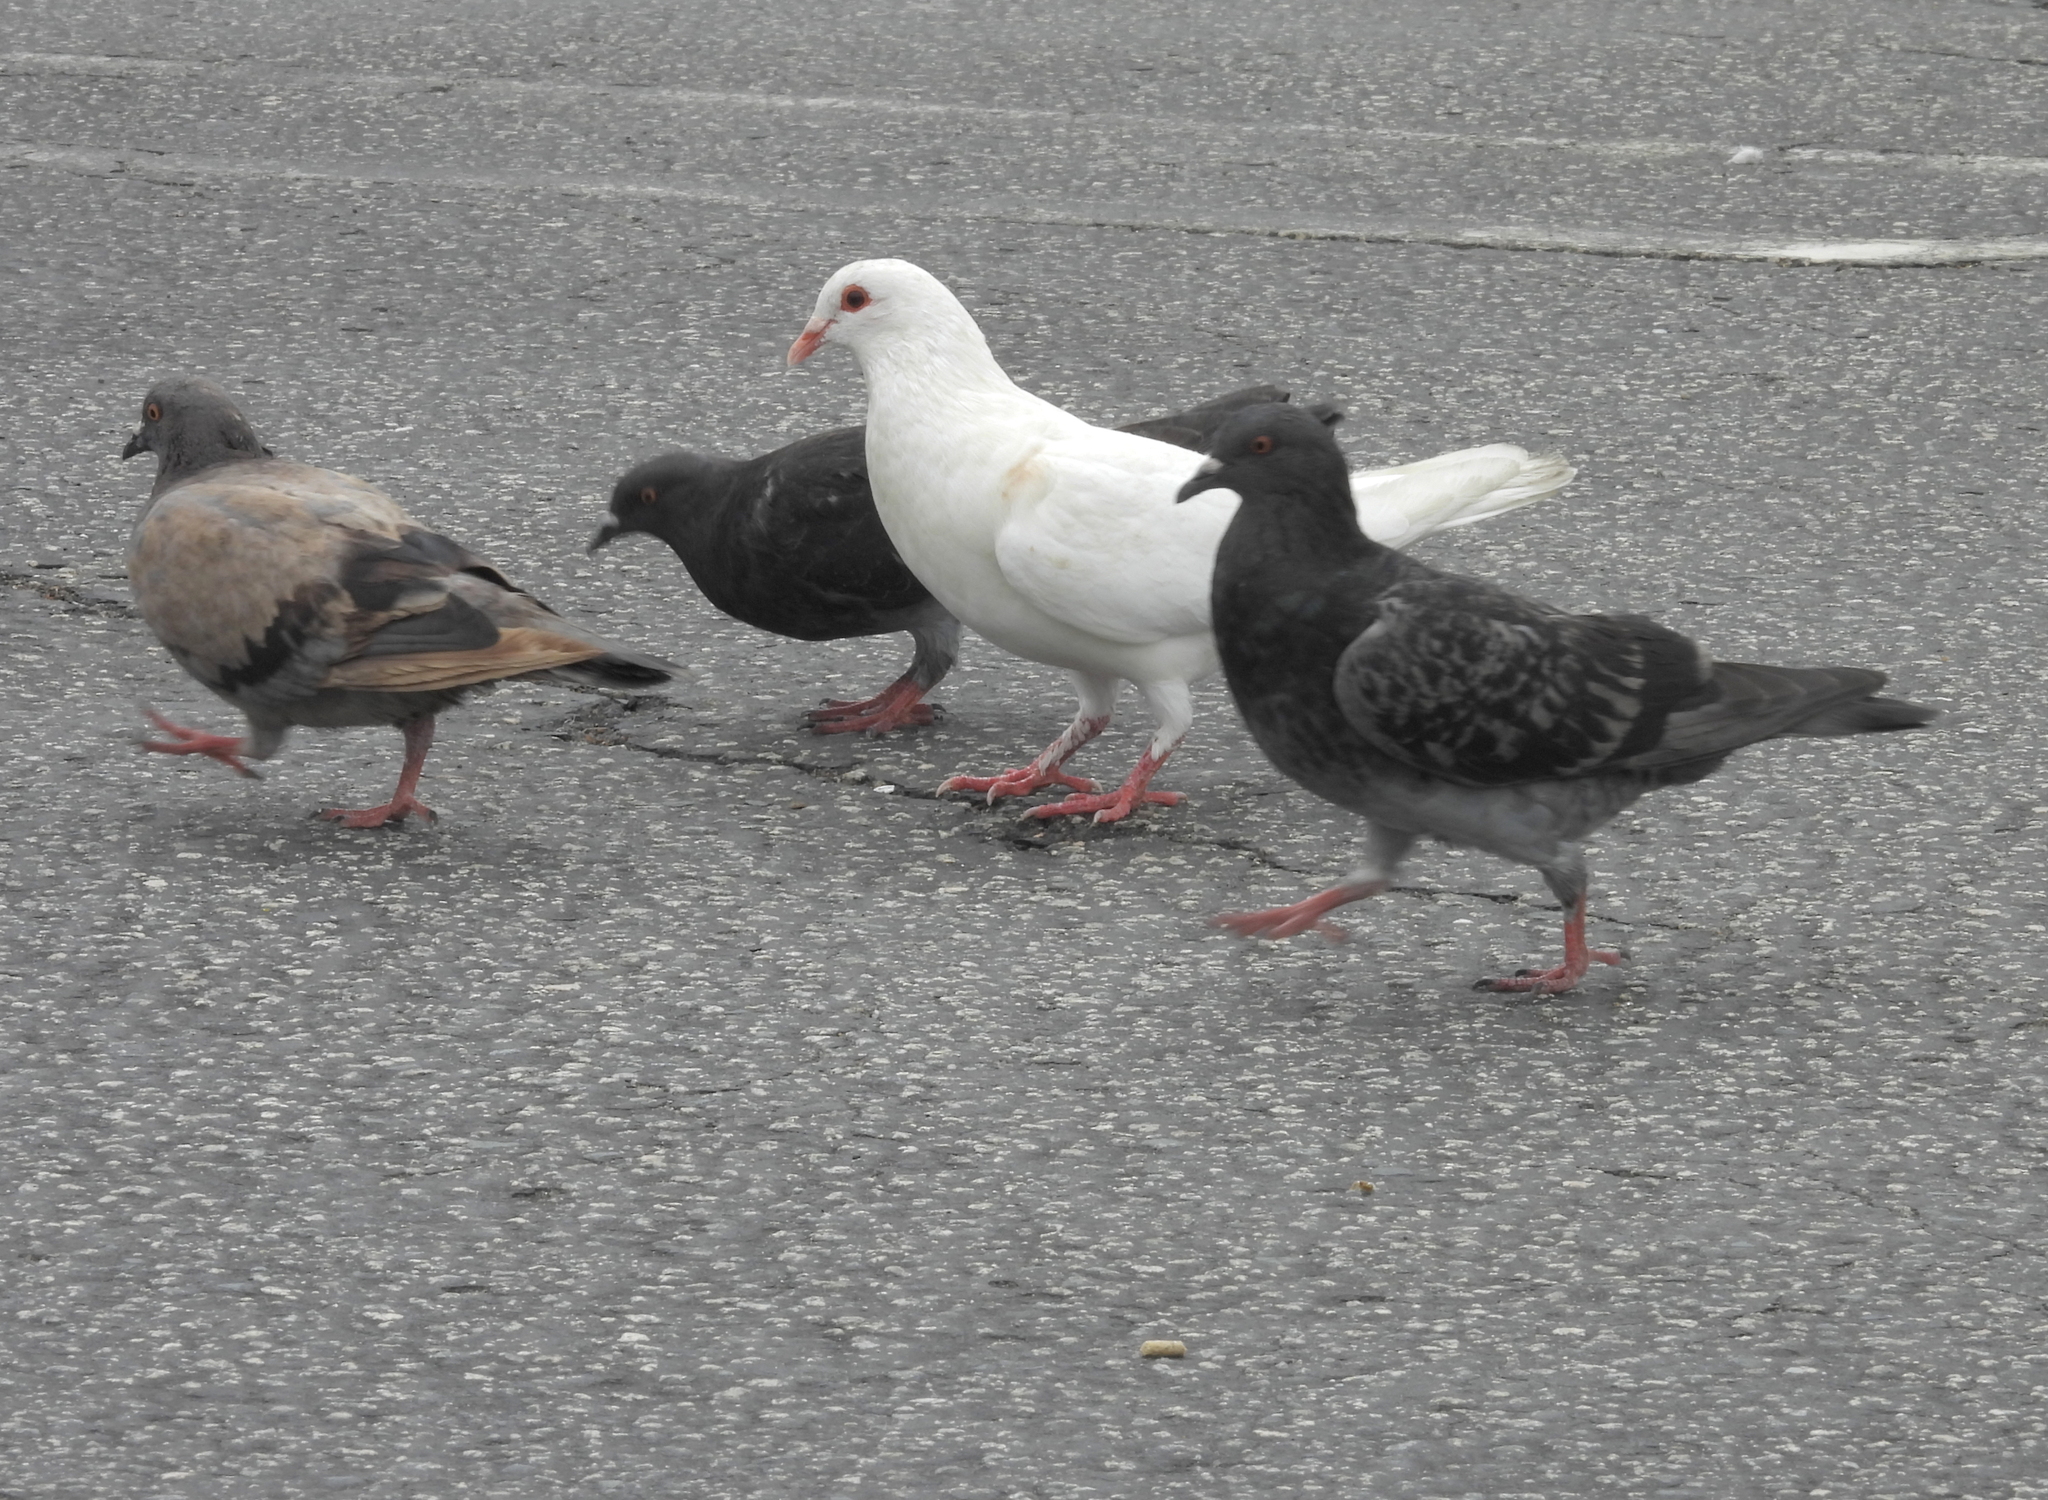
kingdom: Animalia
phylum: Chordata
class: Aves
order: Columbiformes
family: Columbidae
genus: Columba
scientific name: Columba livia
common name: Rock pigeon
